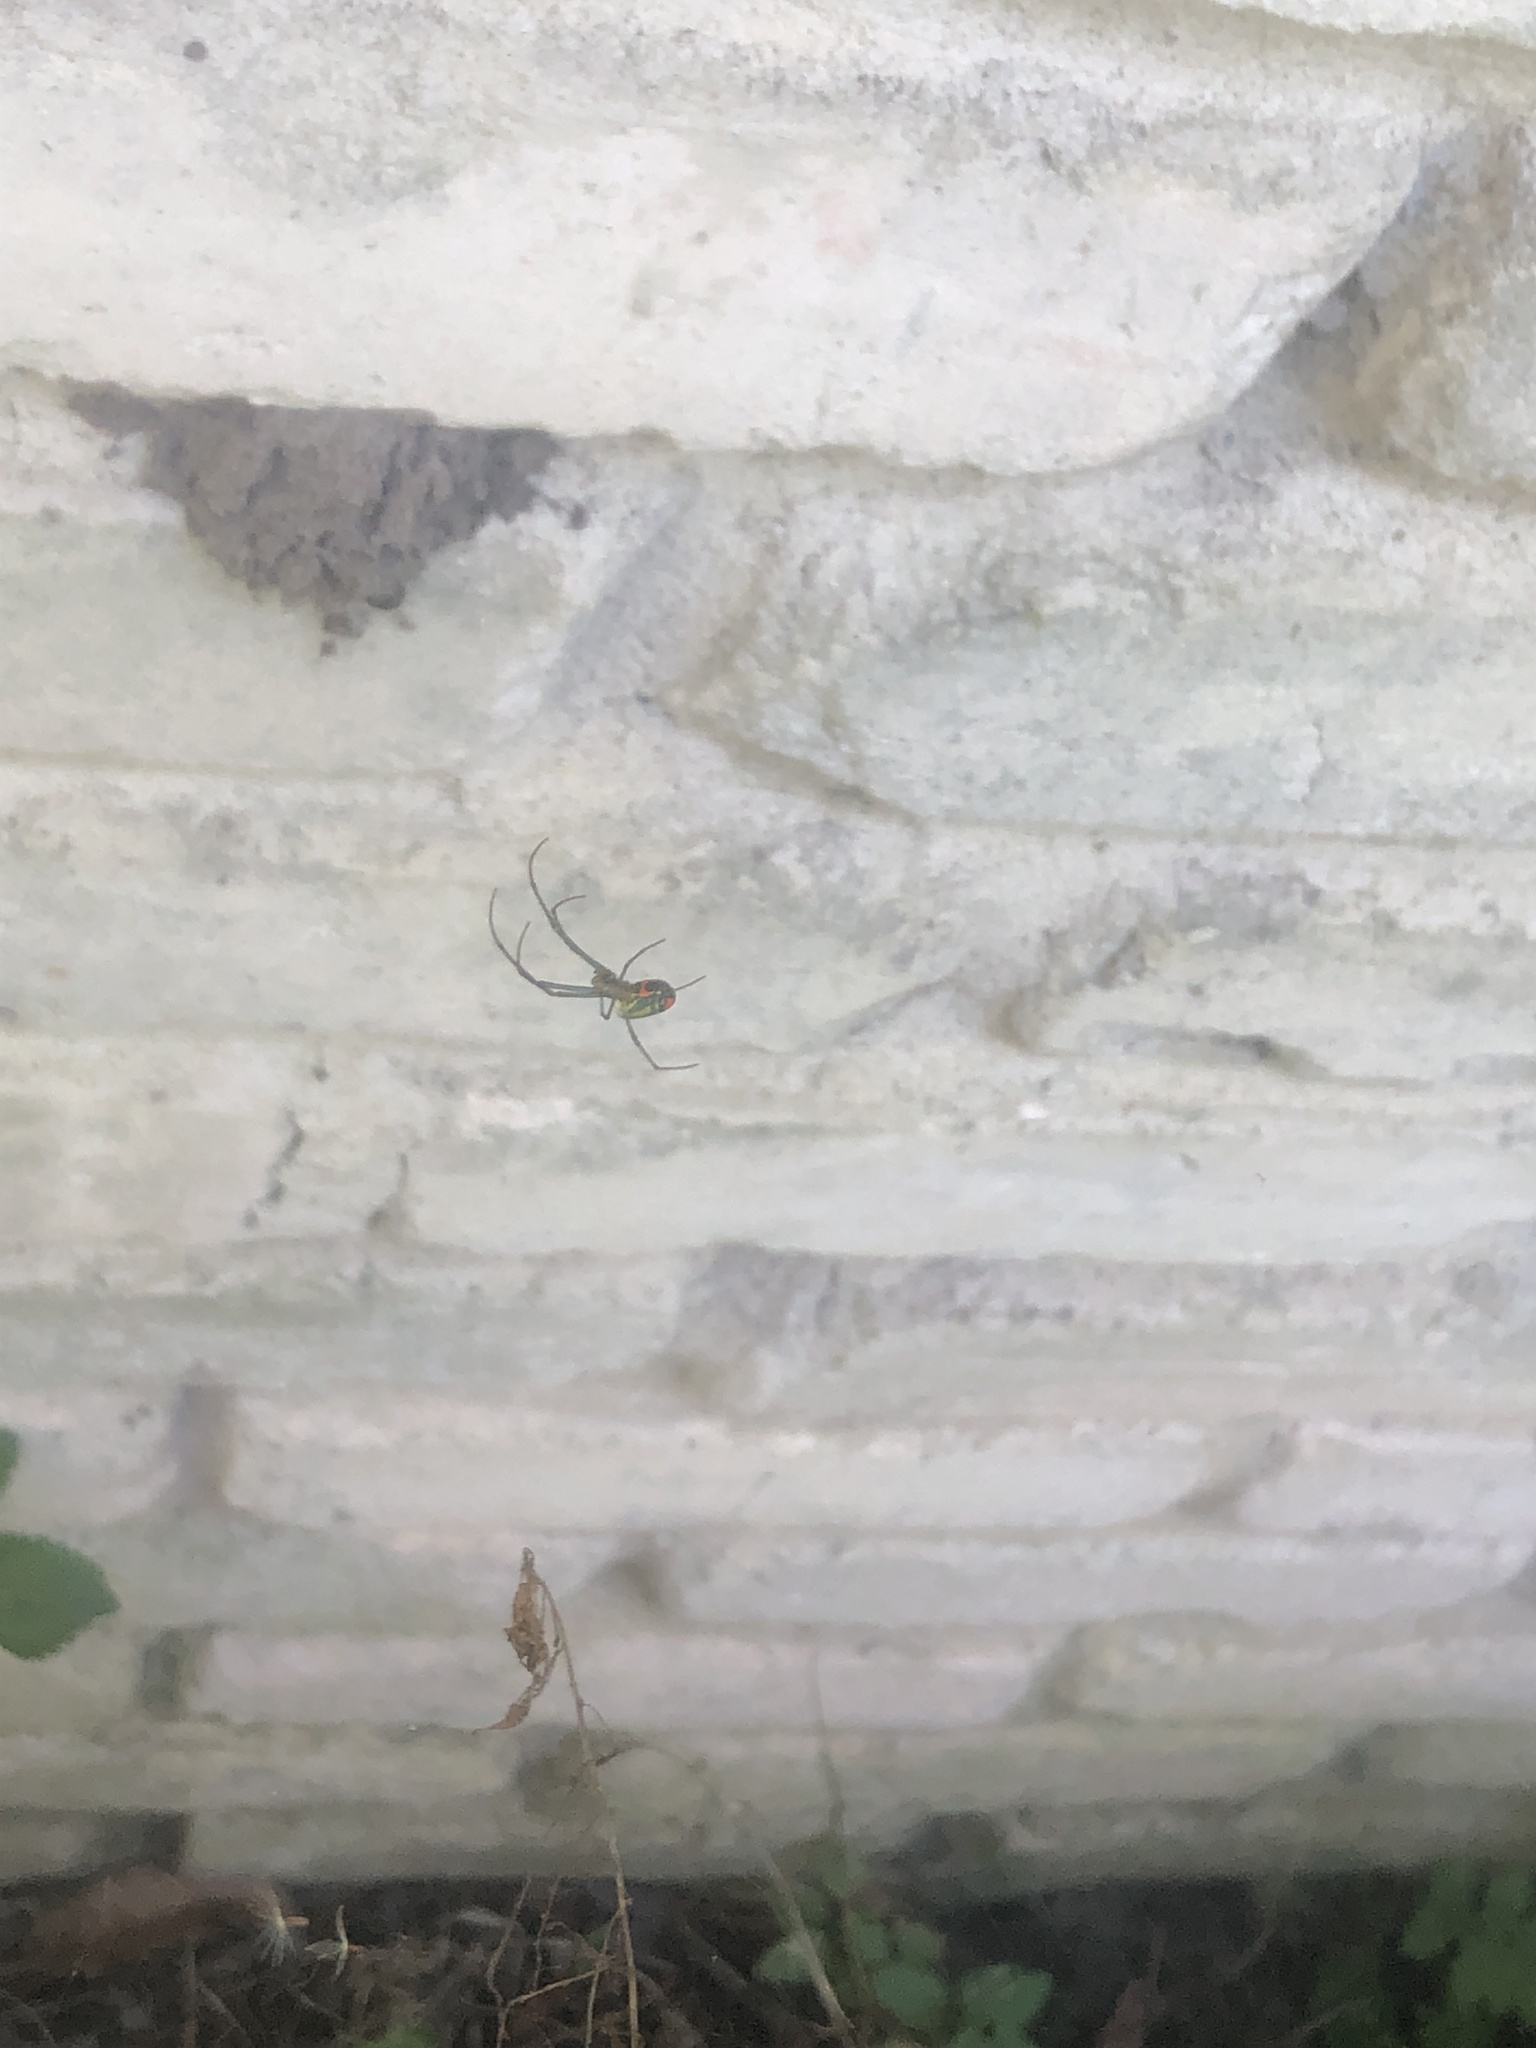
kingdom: Animalia
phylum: Arthropoda
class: Arachnida
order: Araneae
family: Tetragnathidae
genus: Leucauge
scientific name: Leucauge argyrobapta
